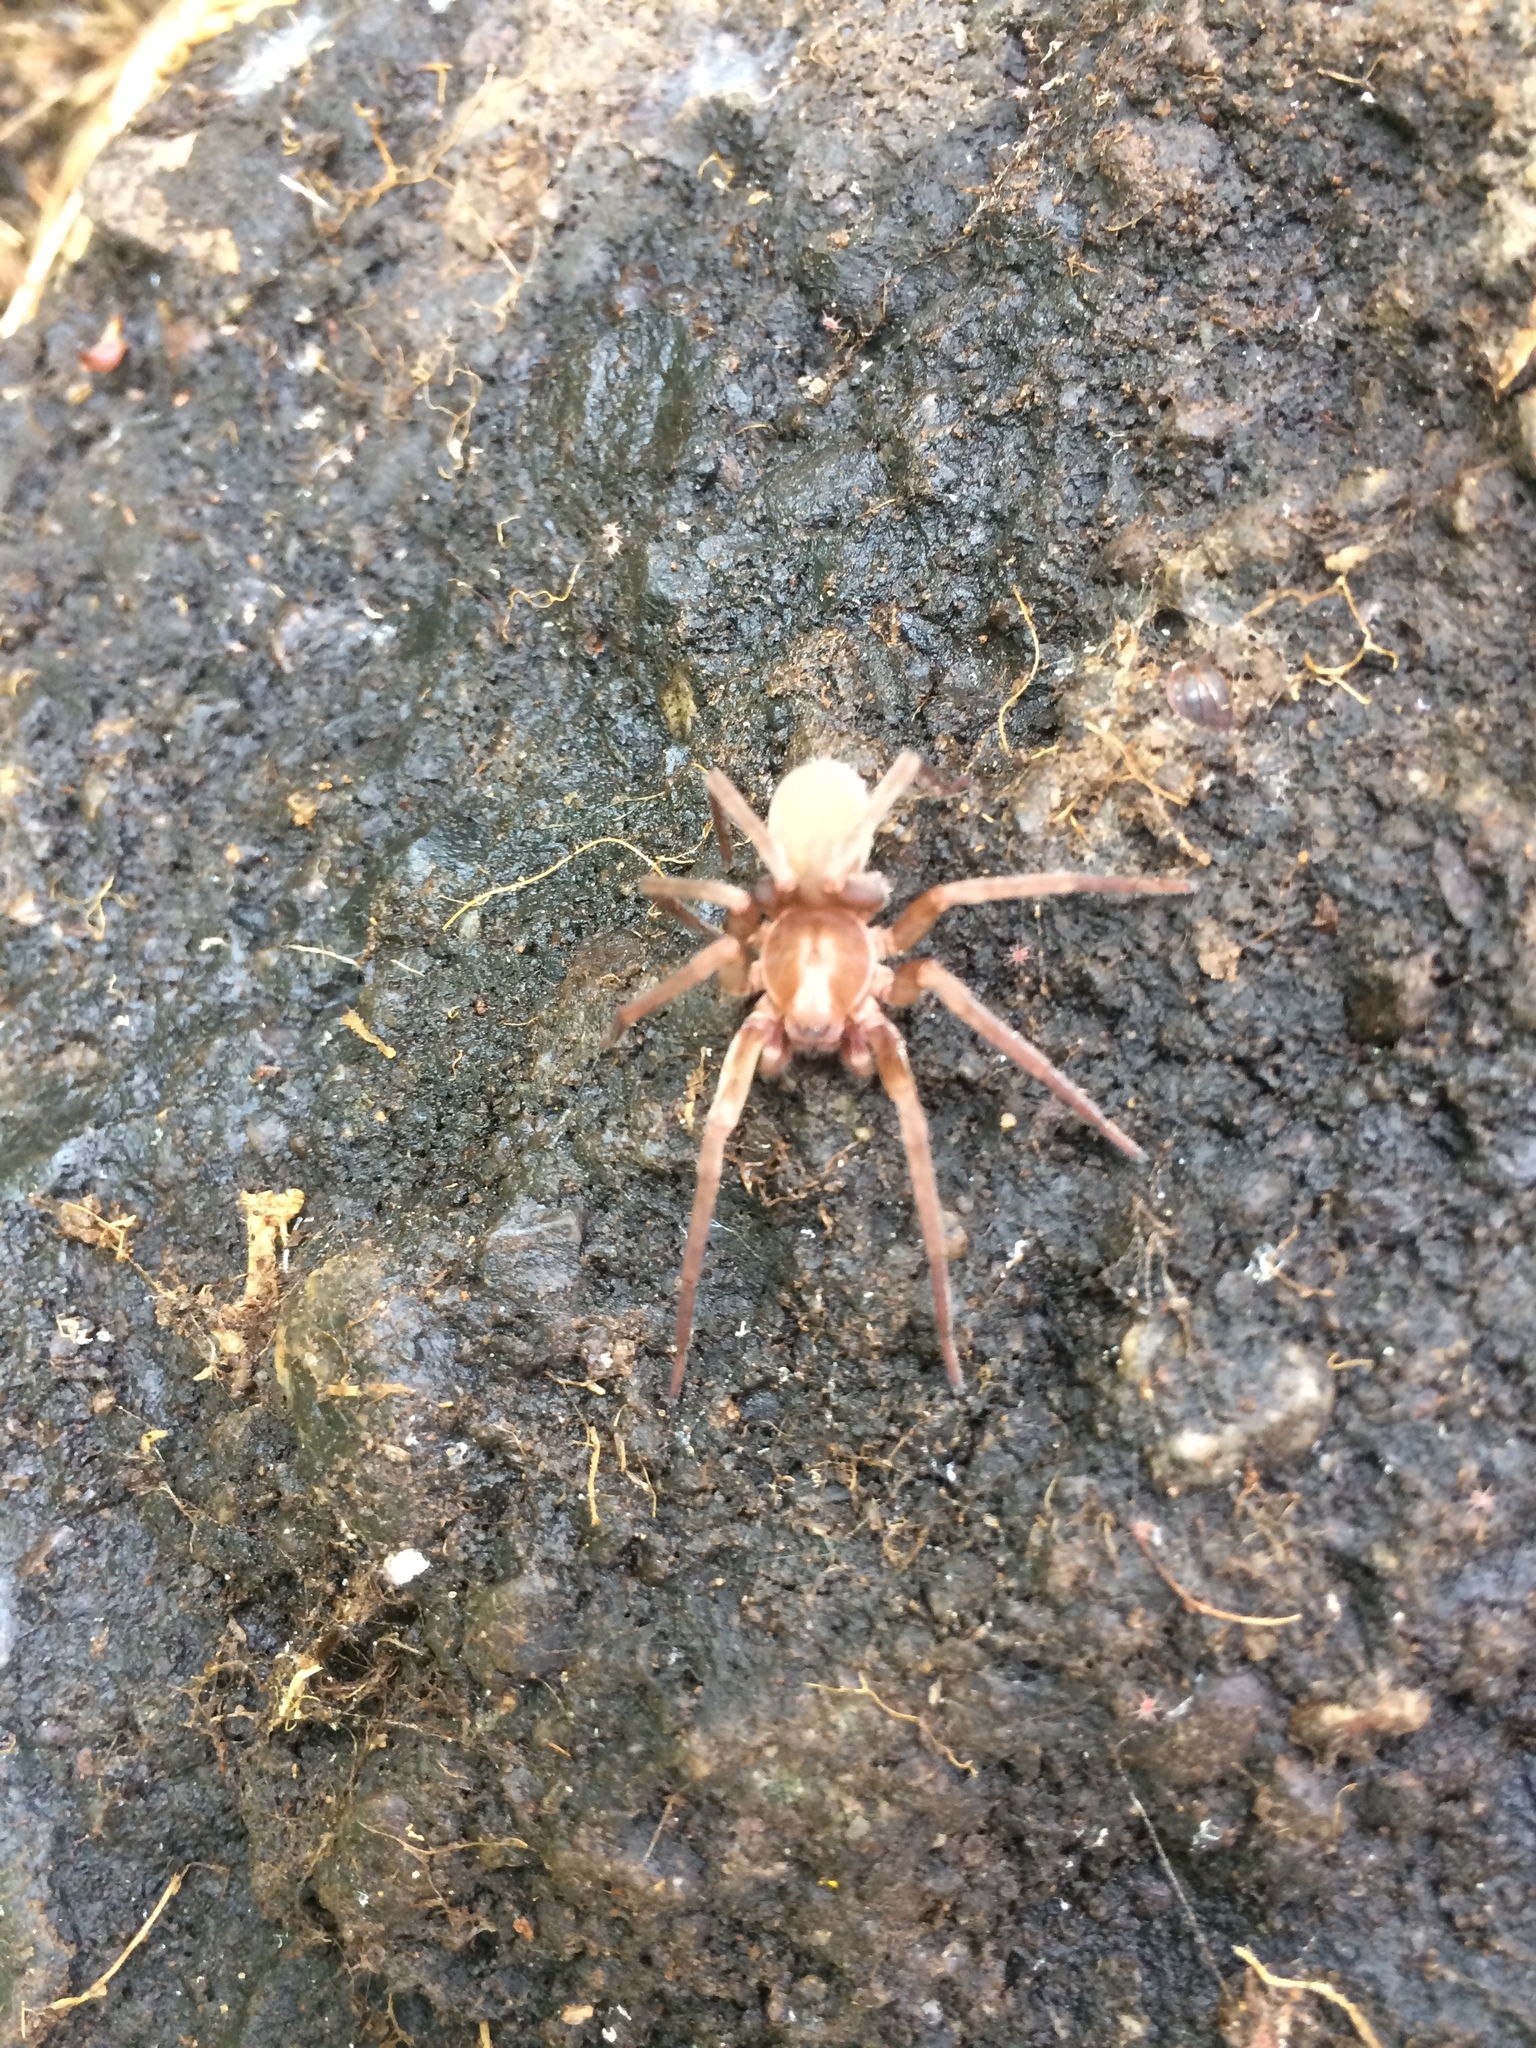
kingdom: Animalia
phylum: Arthropoda
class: Arachnida
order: Araneae
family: Zoropsidae
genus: Titiotus
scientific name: Titiotus
